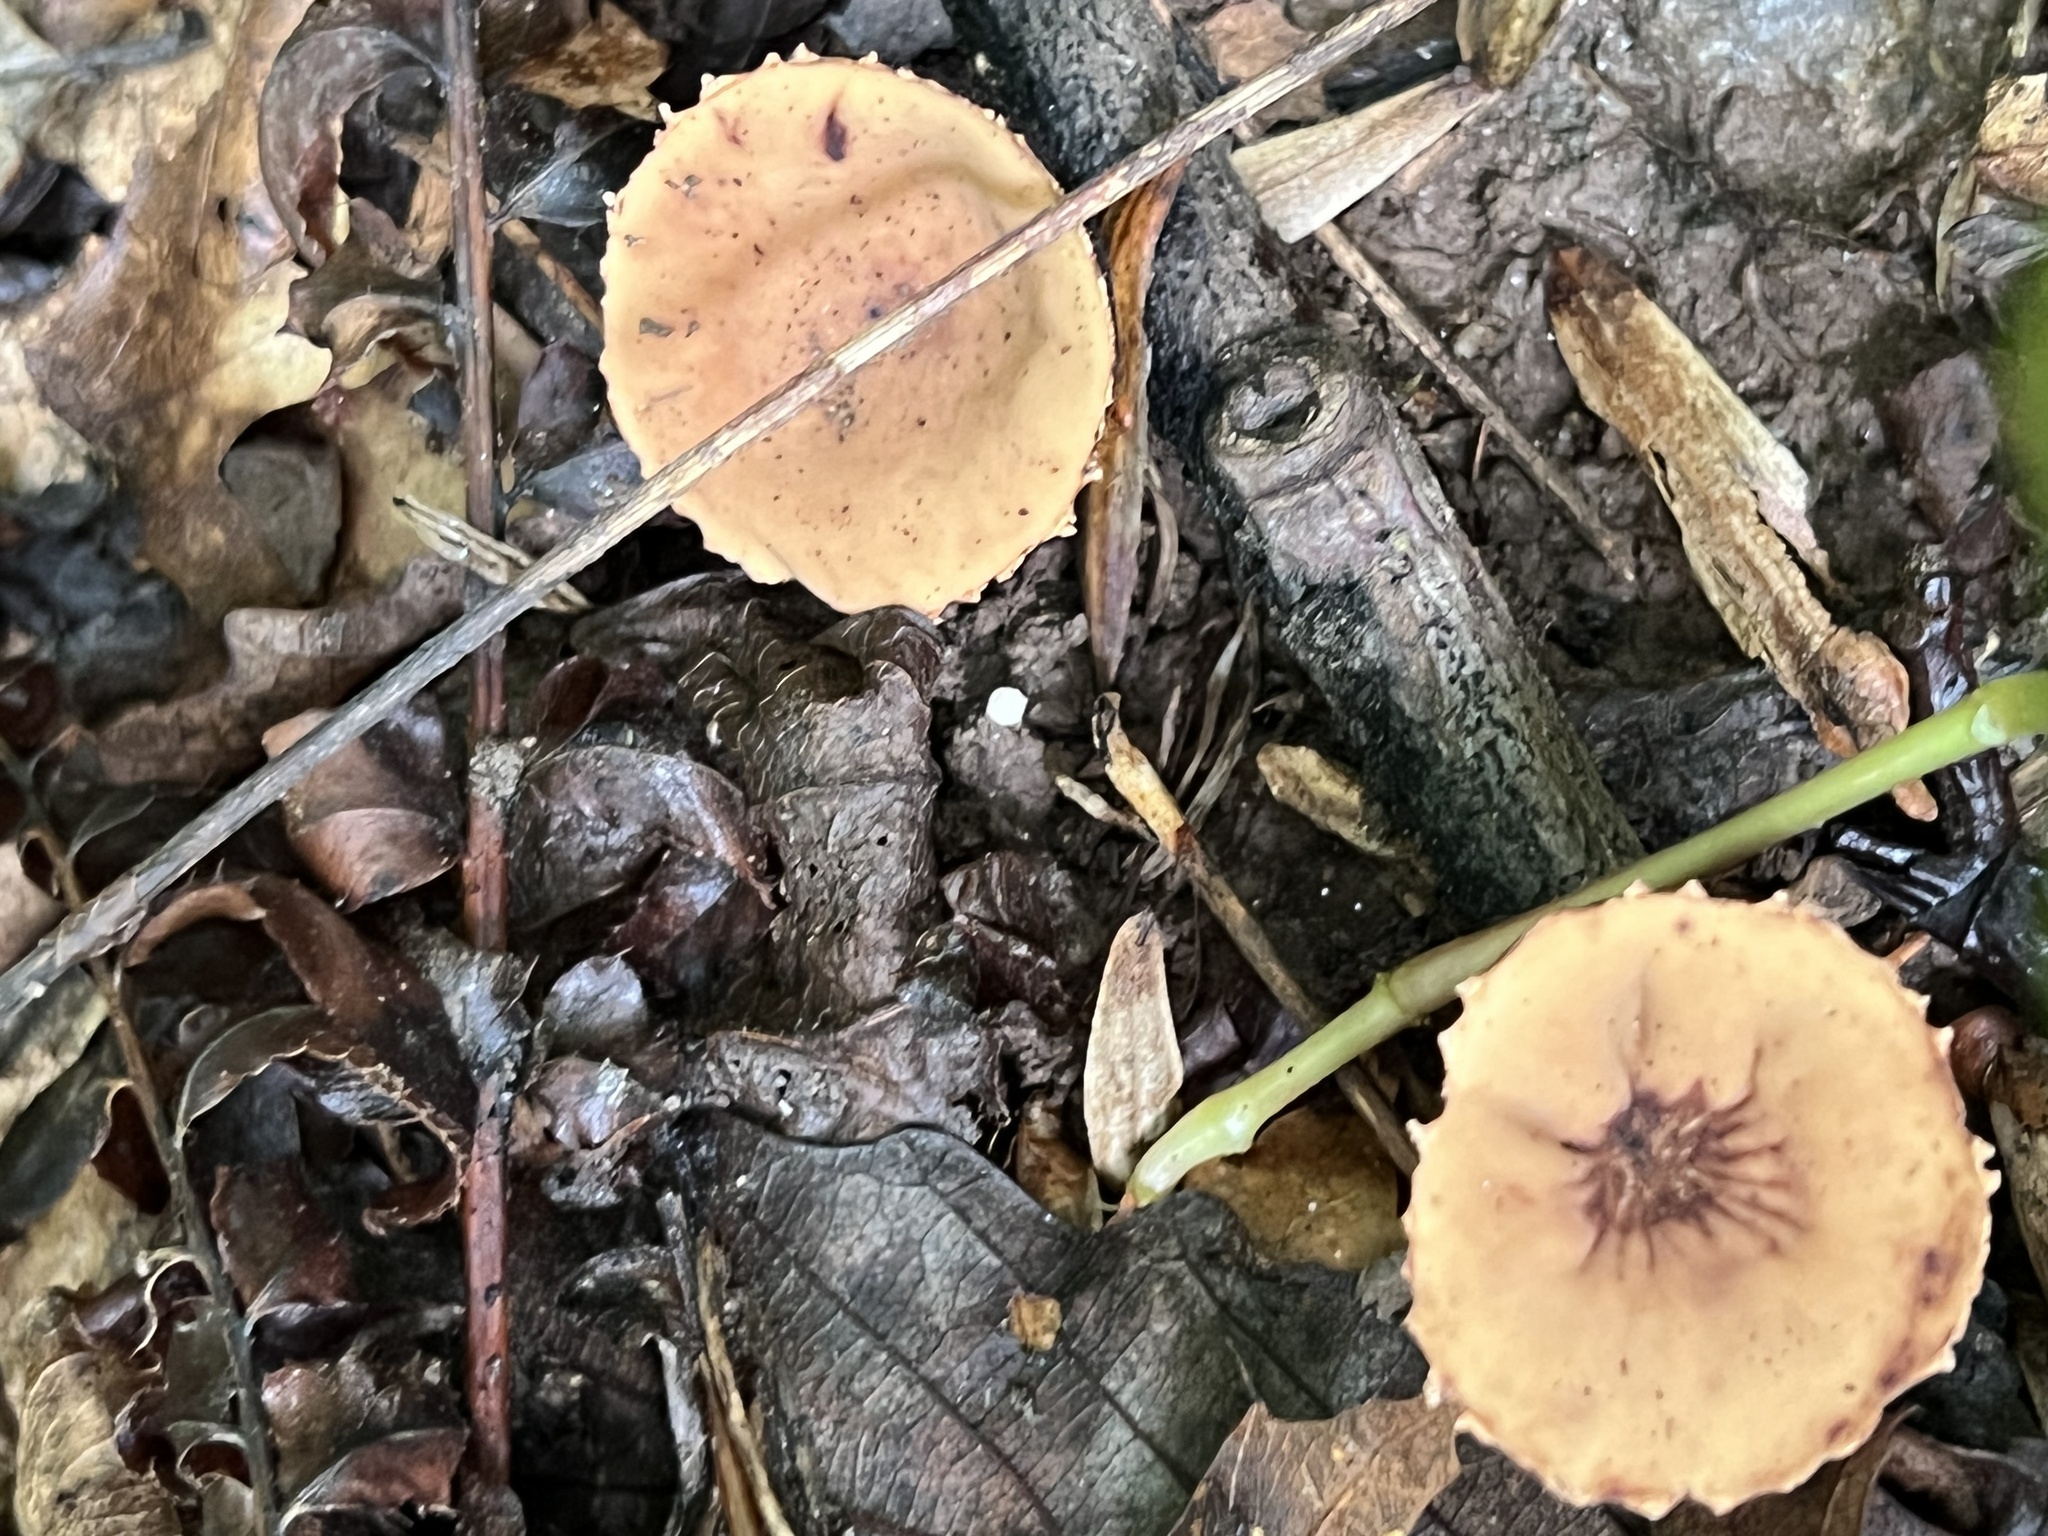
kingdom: Fungi
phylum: Ascomycota
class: Pezizomycetes
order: Pezizales
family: Sarcosomataceae
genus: Galiella
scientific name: Galiella rufa
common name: Hairy rubber cup
